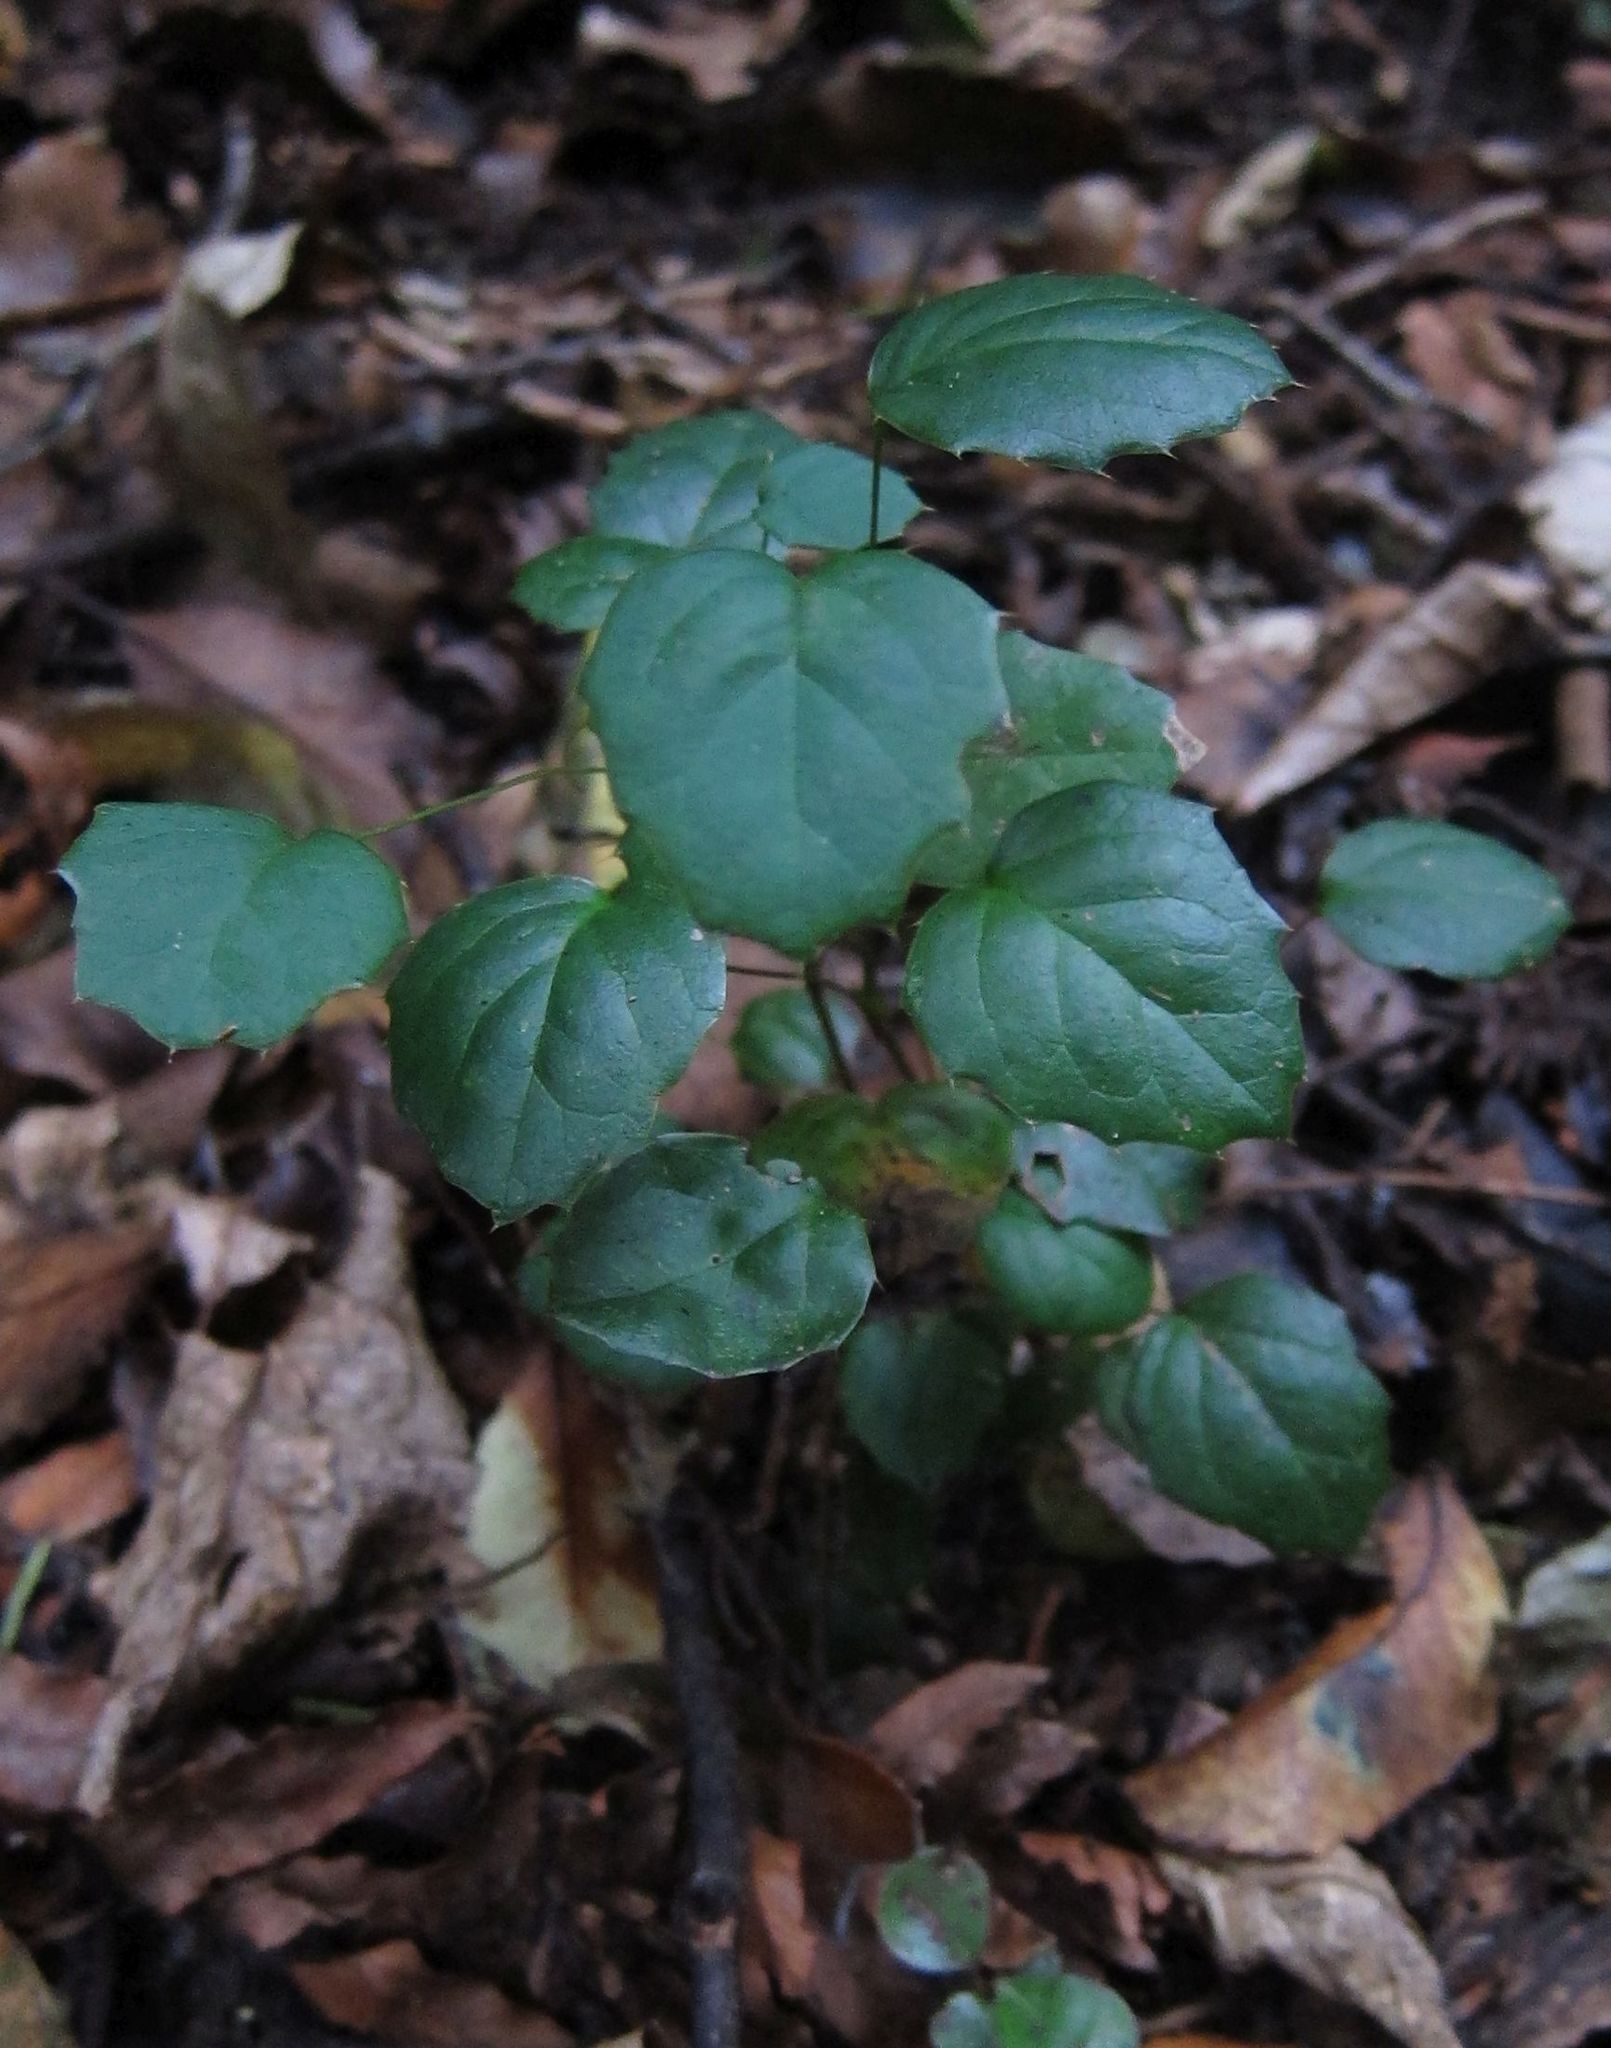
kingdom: Plantae
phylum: Tracheophyta
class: Magnoliopsida
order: Ranunculales
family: Berberidaceae
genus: Berberis
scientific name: Berberis darwinii
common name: Darwin's barberry
